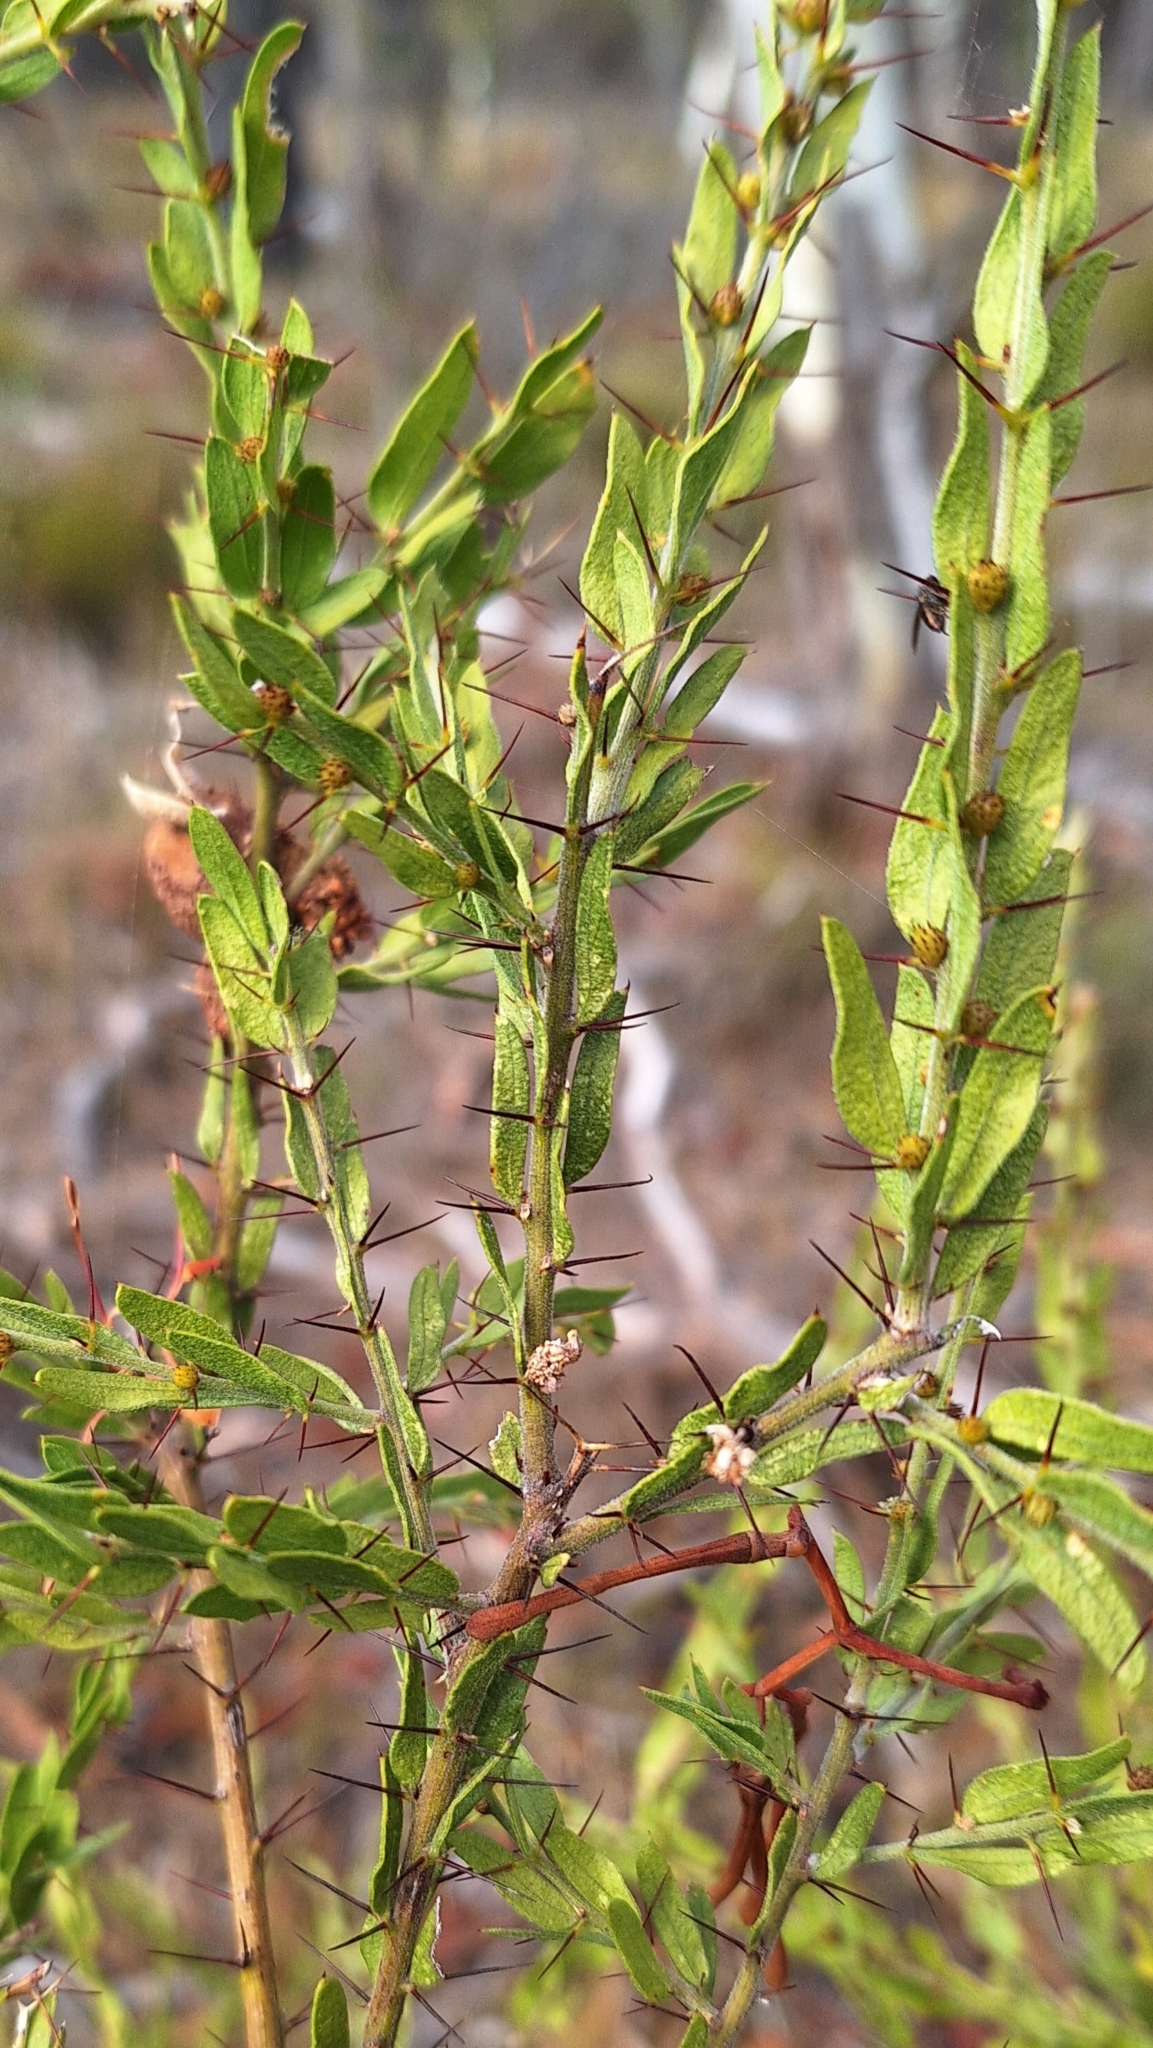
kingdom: Plantae
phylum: Tracheophyta
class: Magnoliopsida
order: Fabales
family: Fabaceae
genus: Acacia
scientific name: Acacia paradoxa
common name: Paradox acacia
